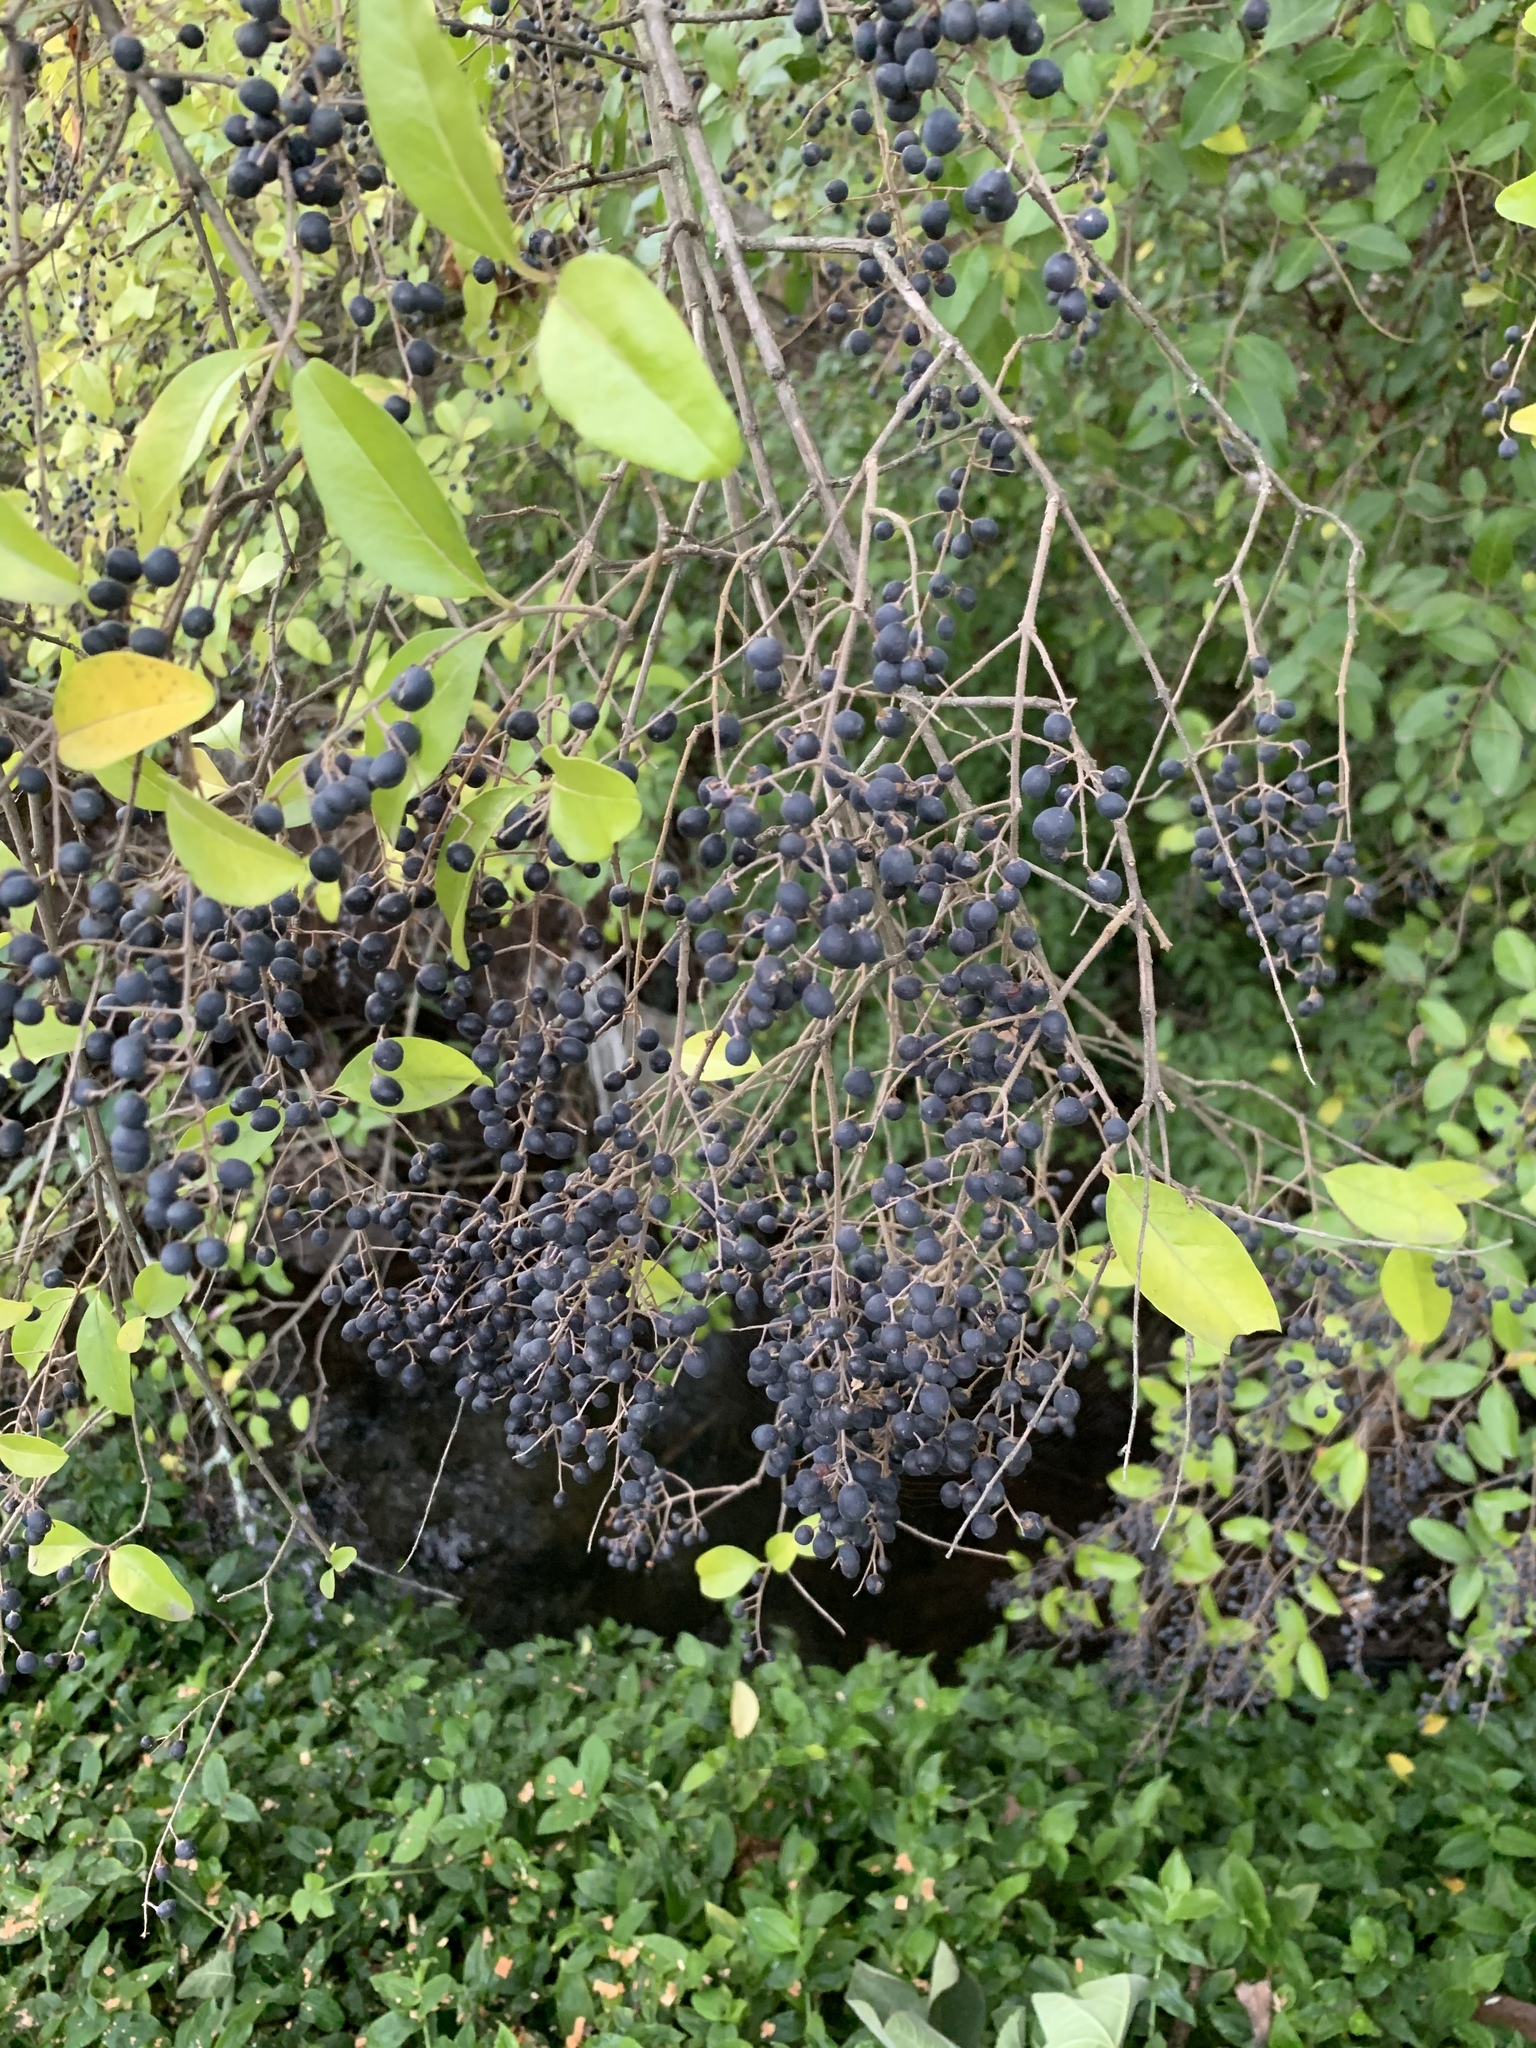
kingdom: Plantae
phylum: Tracheophyta
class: Magnoliopsida
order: Lamiales
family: Oleaceae
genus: Ligustrum
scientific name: Ligustrum sinense
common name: Chinese privet
